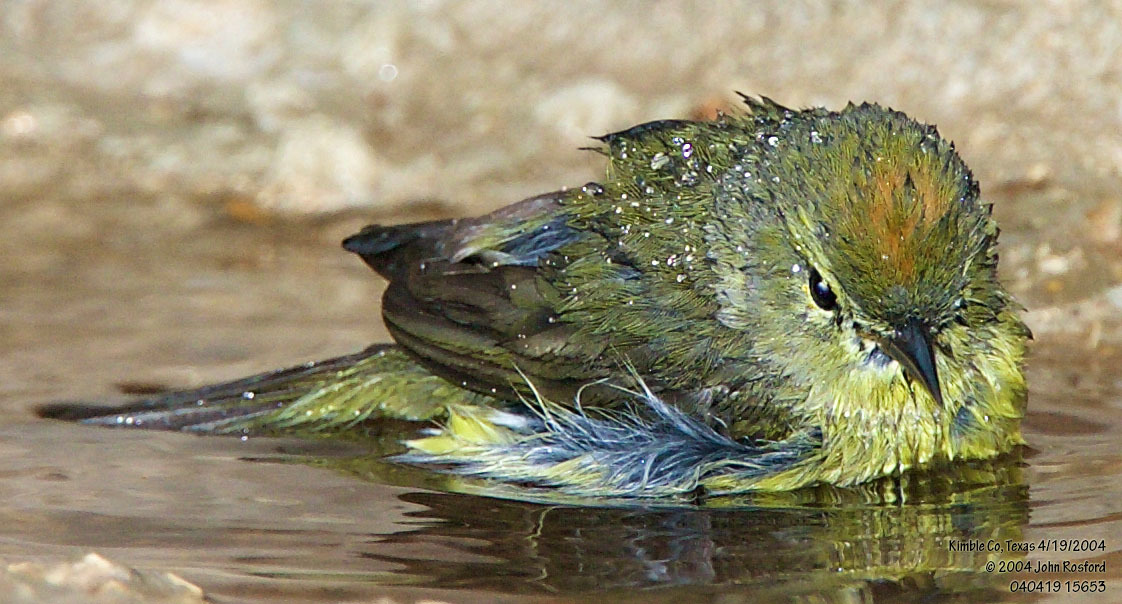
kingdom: Animalia
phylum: Chordata
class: Aves
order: Passeriformes
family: Parulidae
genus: Leiothlypis
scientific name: Leiothlypis celata
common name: Orange-crowned warbler
